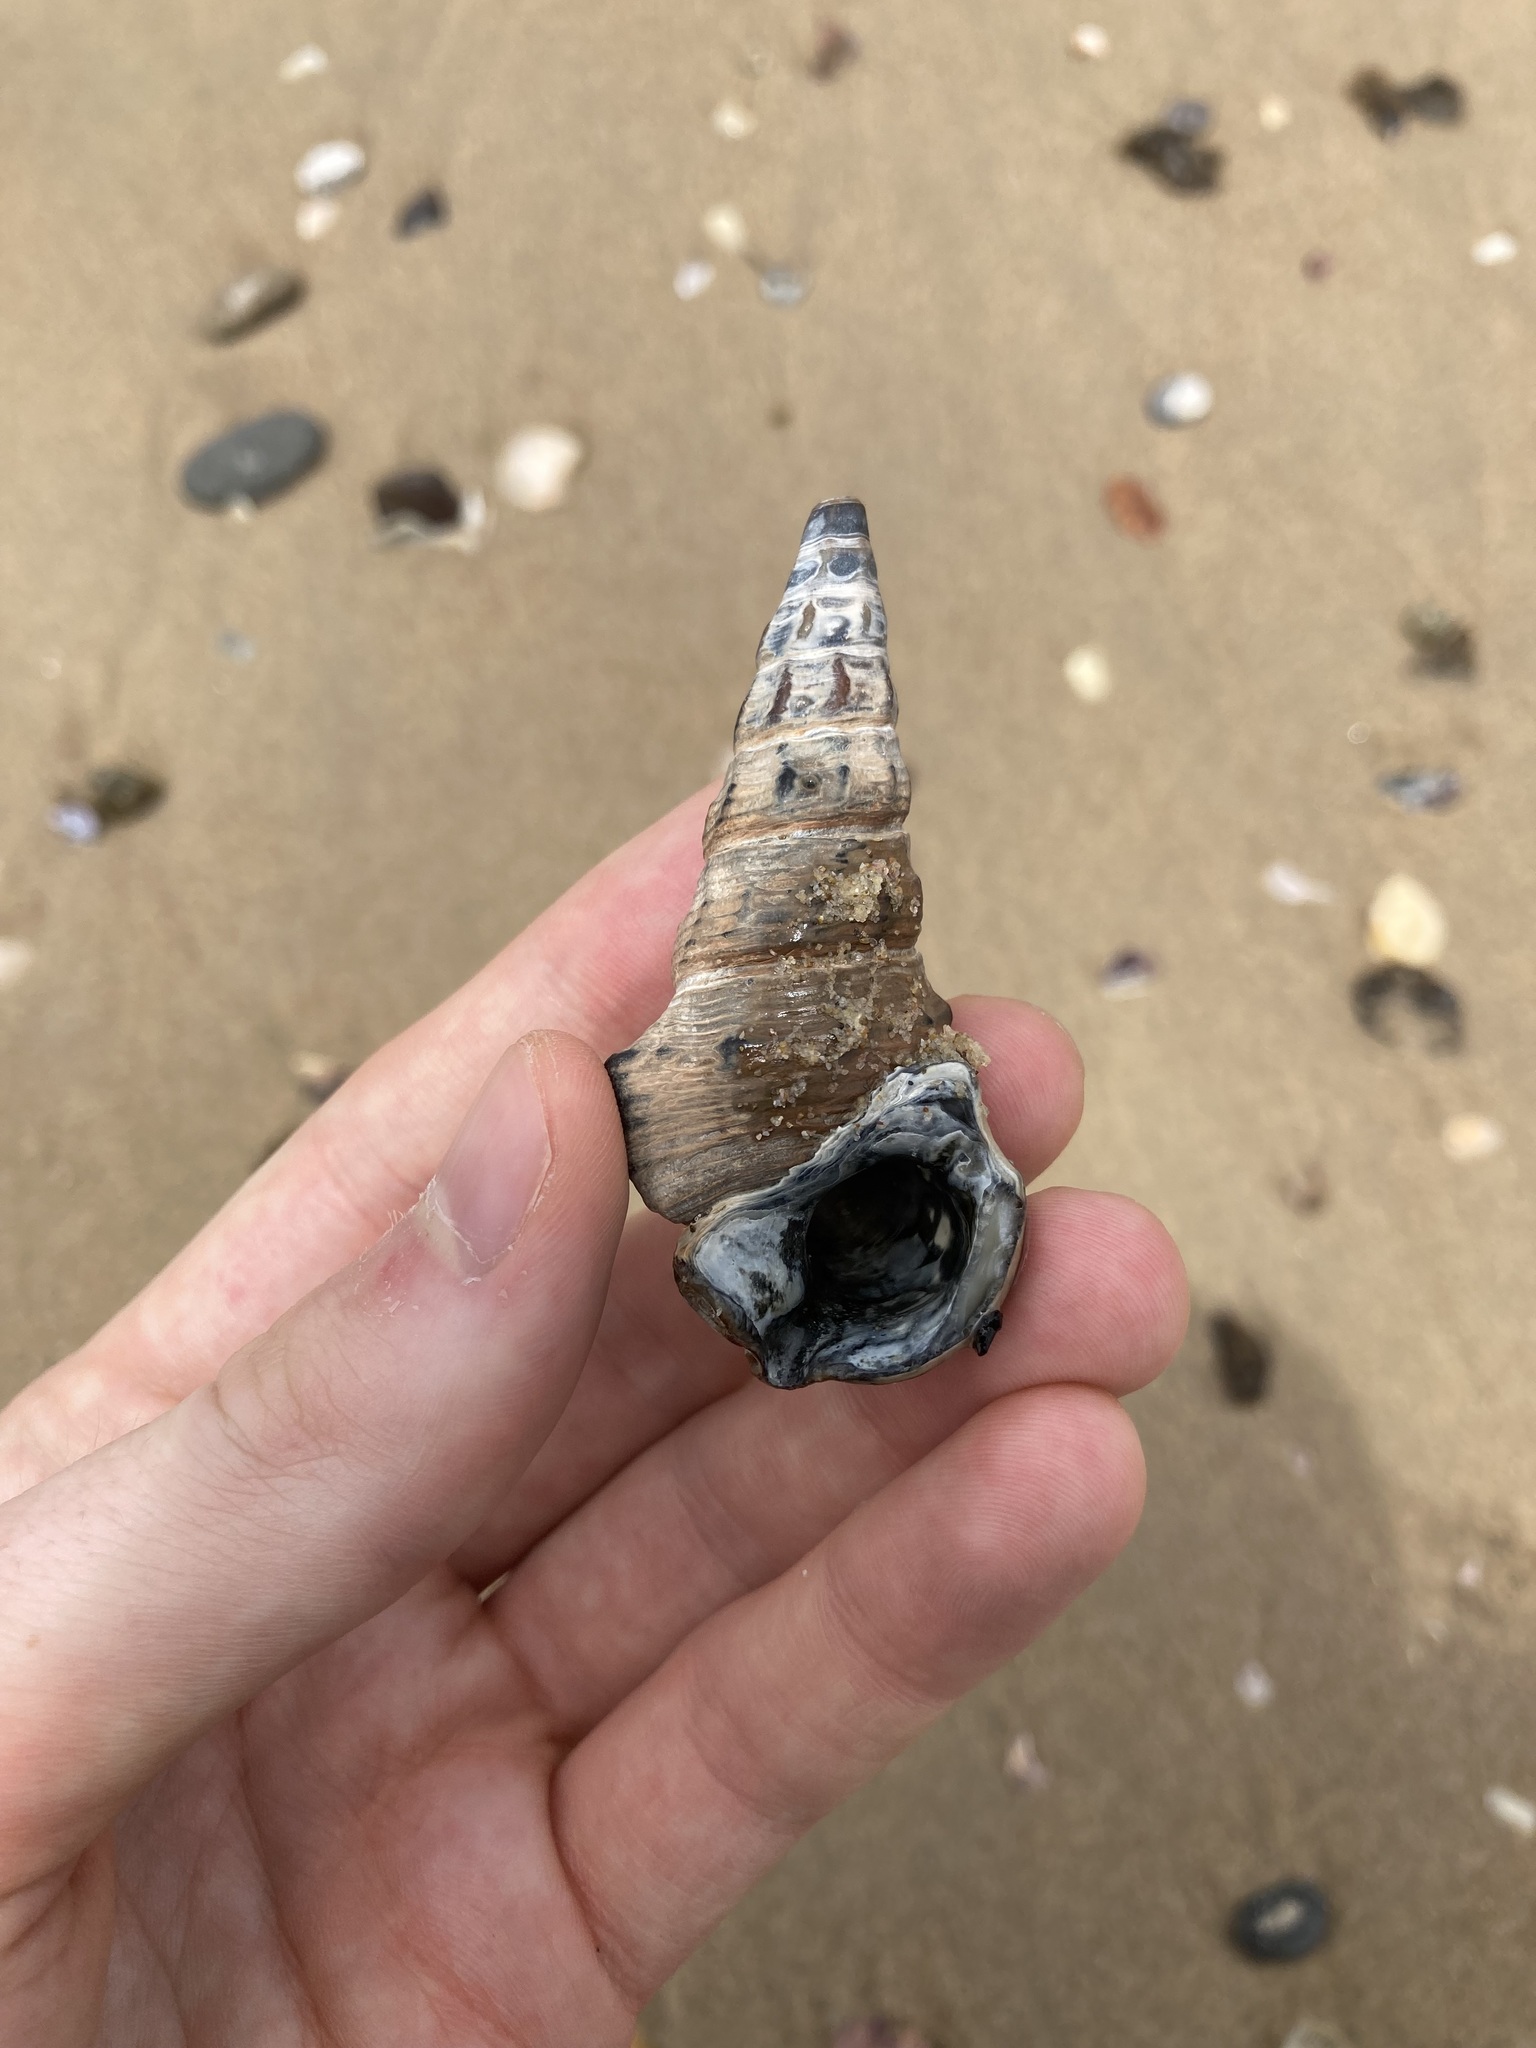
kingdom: Animalia
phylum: Mollusca
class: Gastropoda
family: Batillariidae
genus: Pyrazus
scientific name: Pyrazus ebeninus
